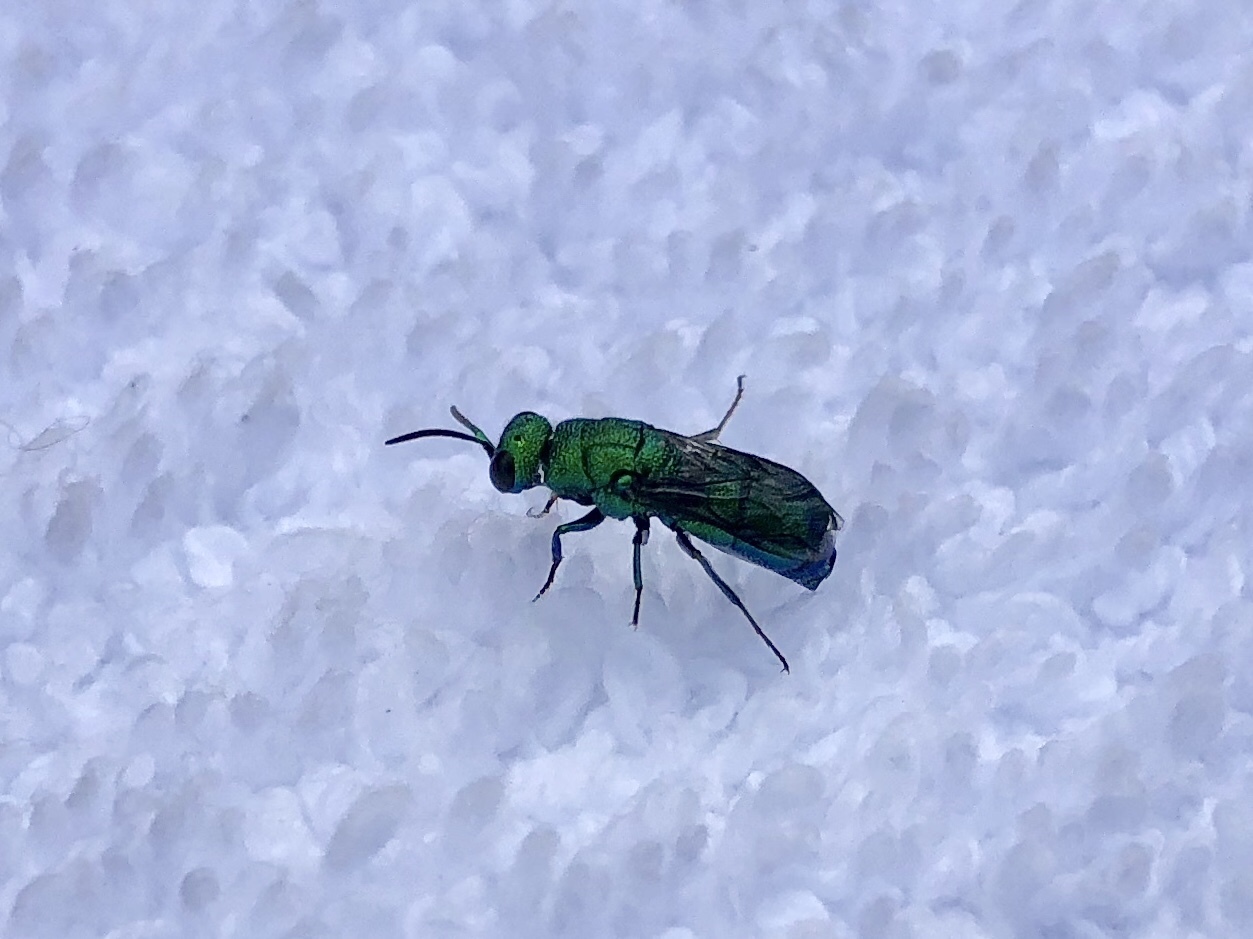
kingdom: Animalia
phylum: Arthropoda
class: Insecta
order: Hymenoptera
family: Chrysididae
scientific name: Chrysididae
